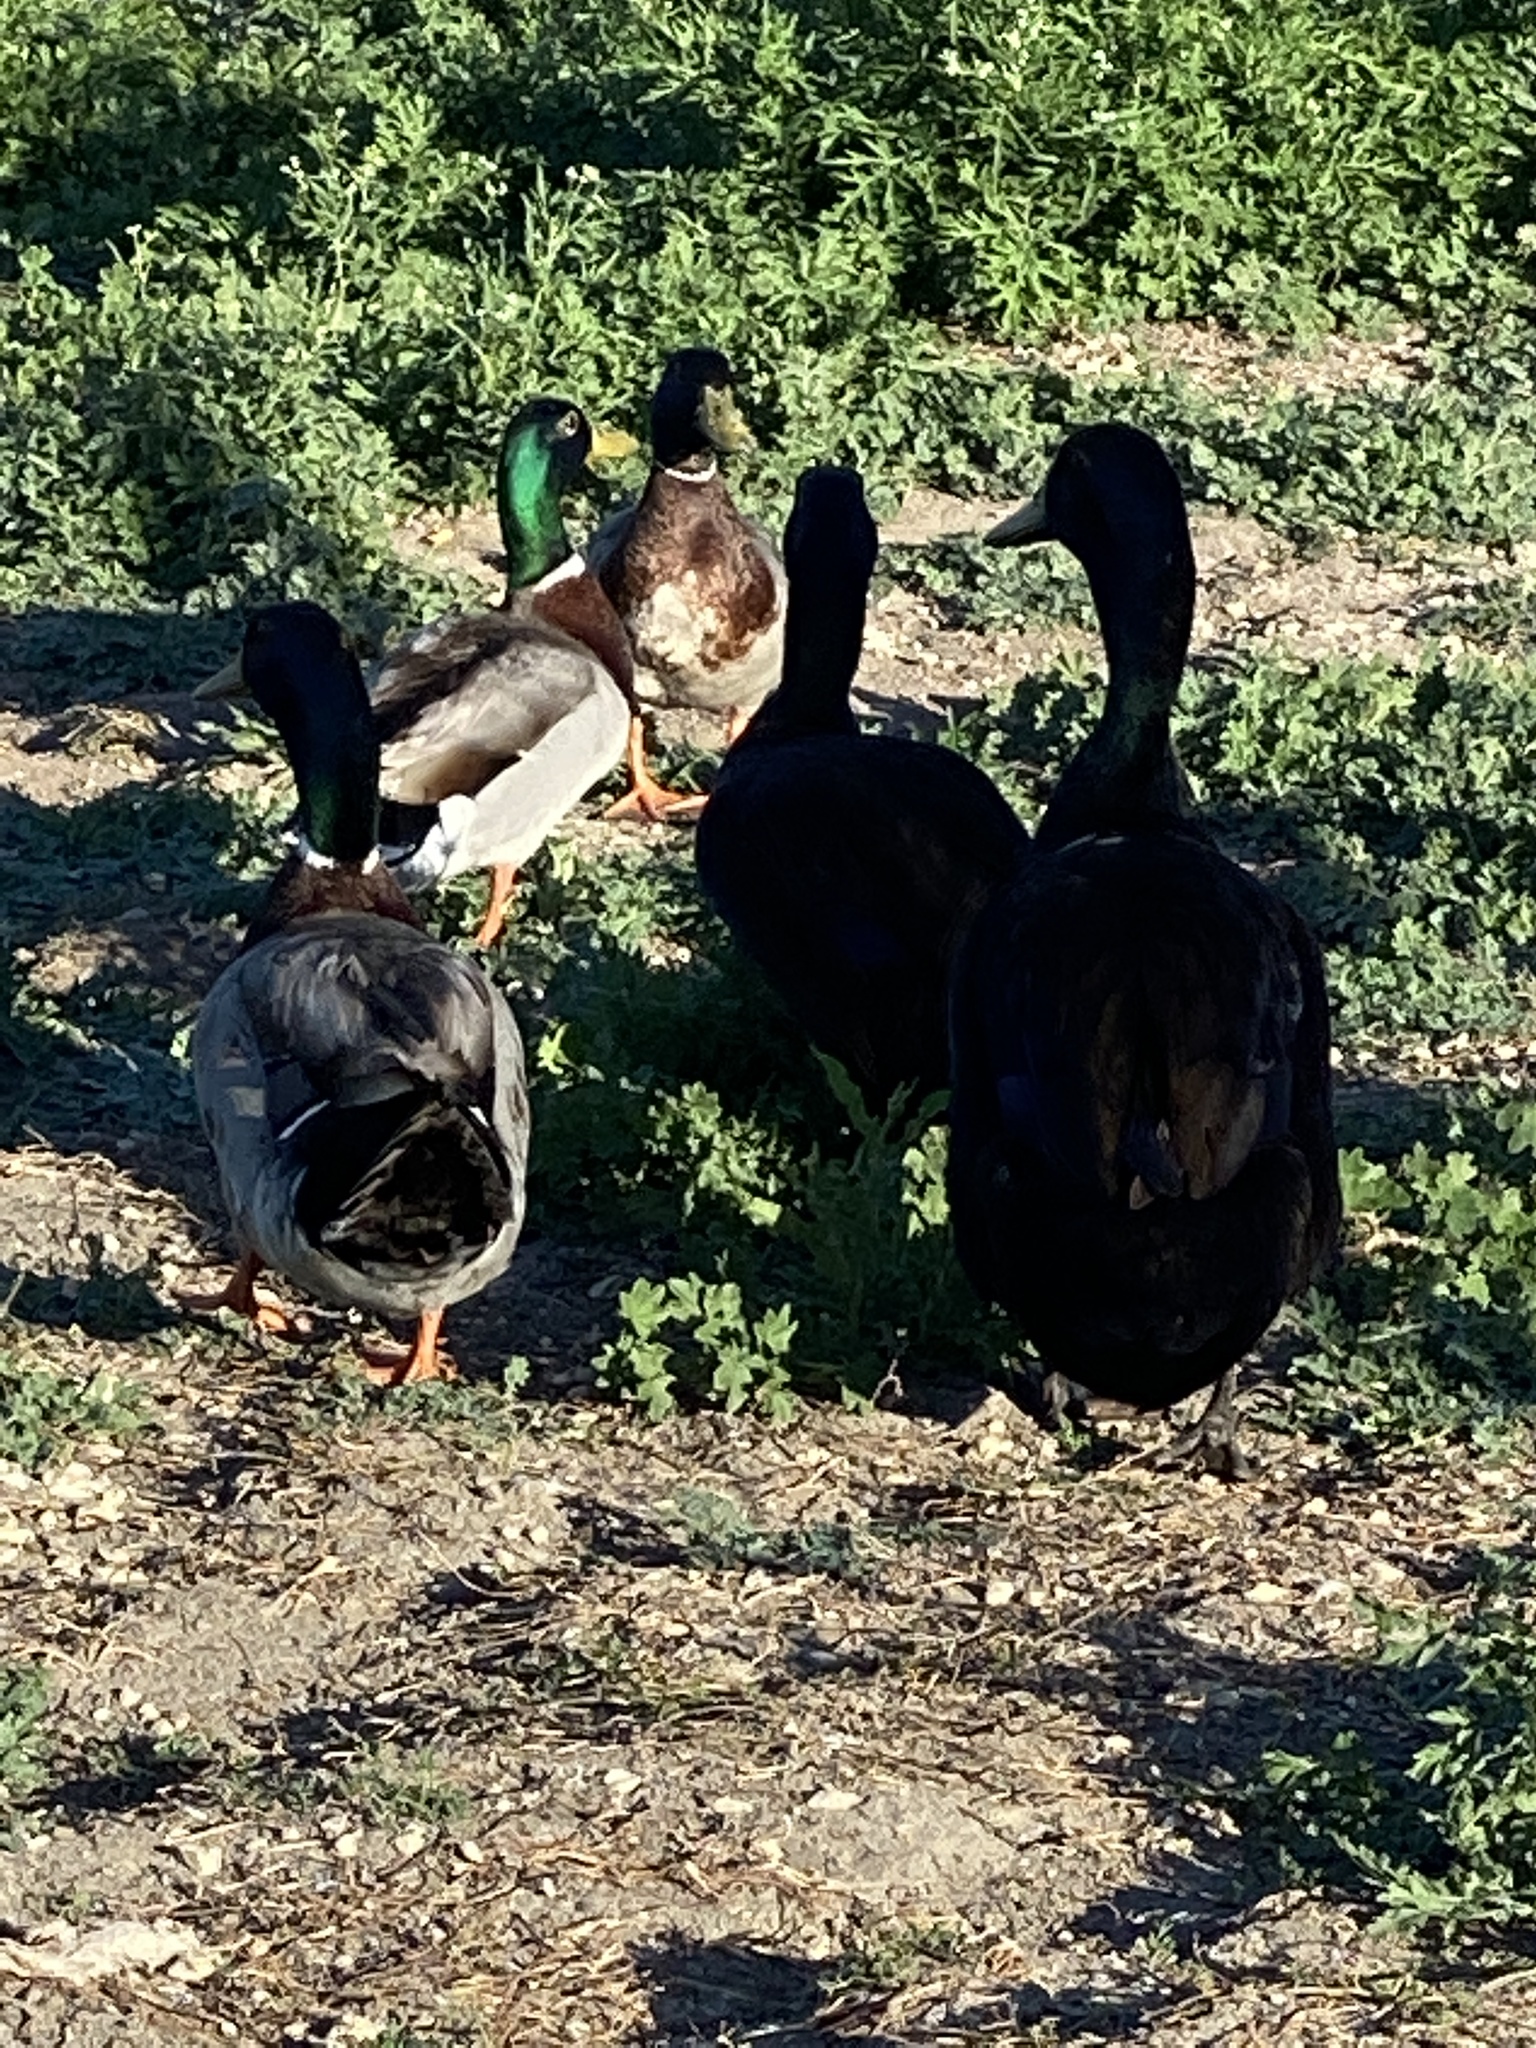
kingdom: Animalia
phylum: Chordata
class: Aves
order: Anseriformes
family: Anatidae
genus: Anas
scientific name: Anas platyrhynchos
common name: Mallard
